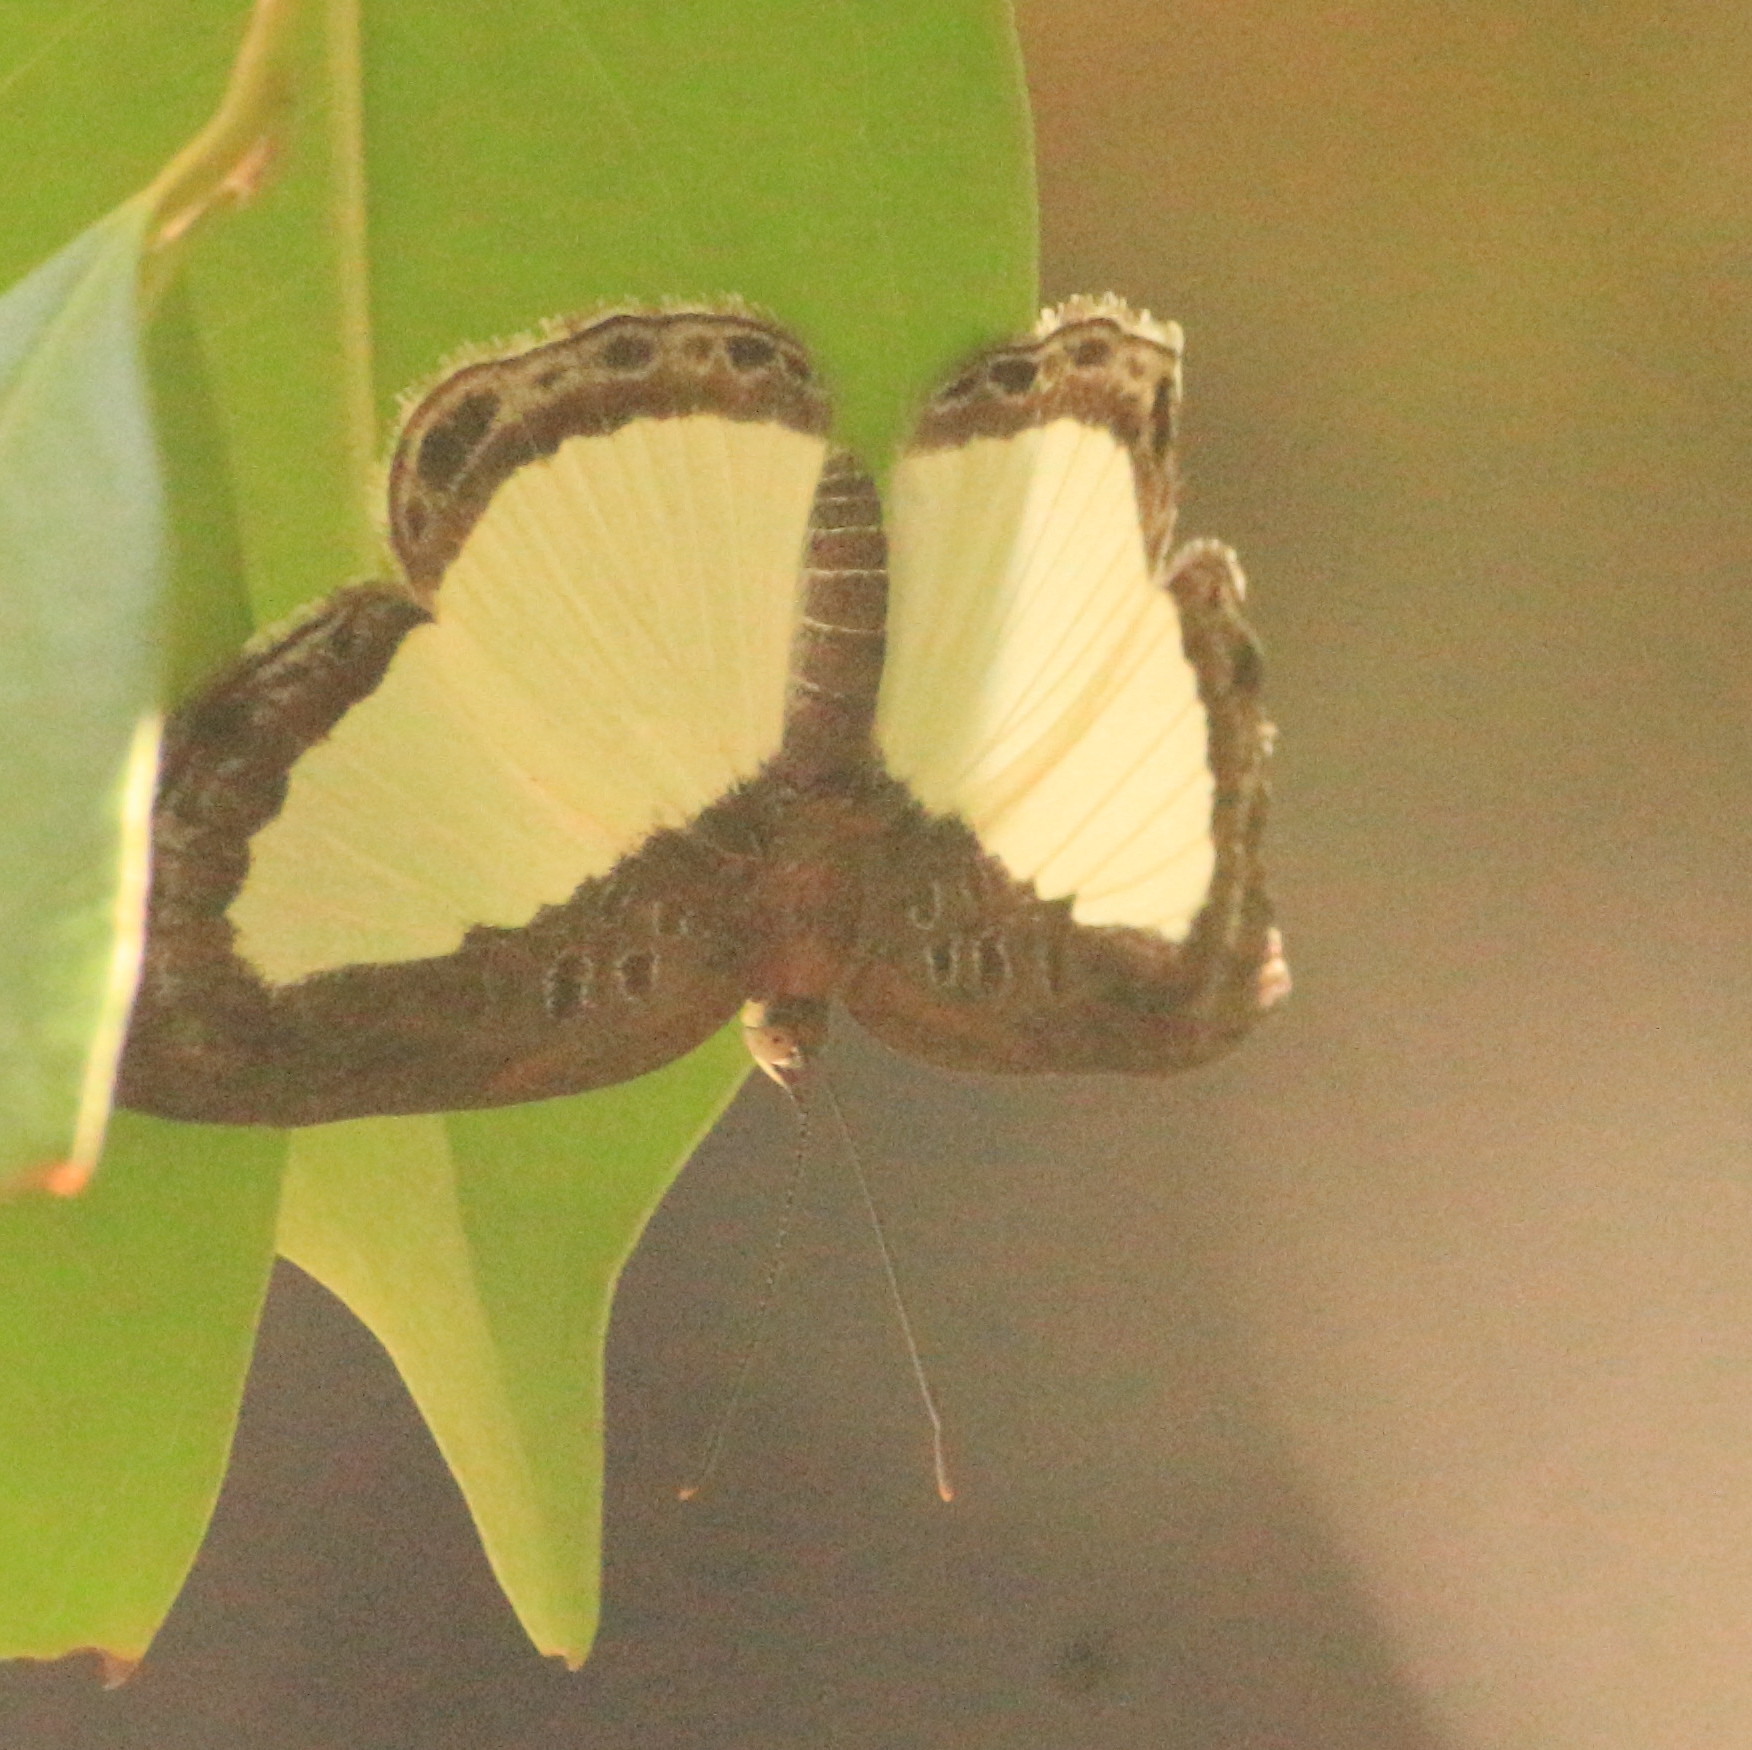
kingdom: Animalia
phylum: Arthropoda
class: Insecta
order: Lepidoptera
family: Riodinidae
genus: Nymula
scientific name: Nymula calyce
